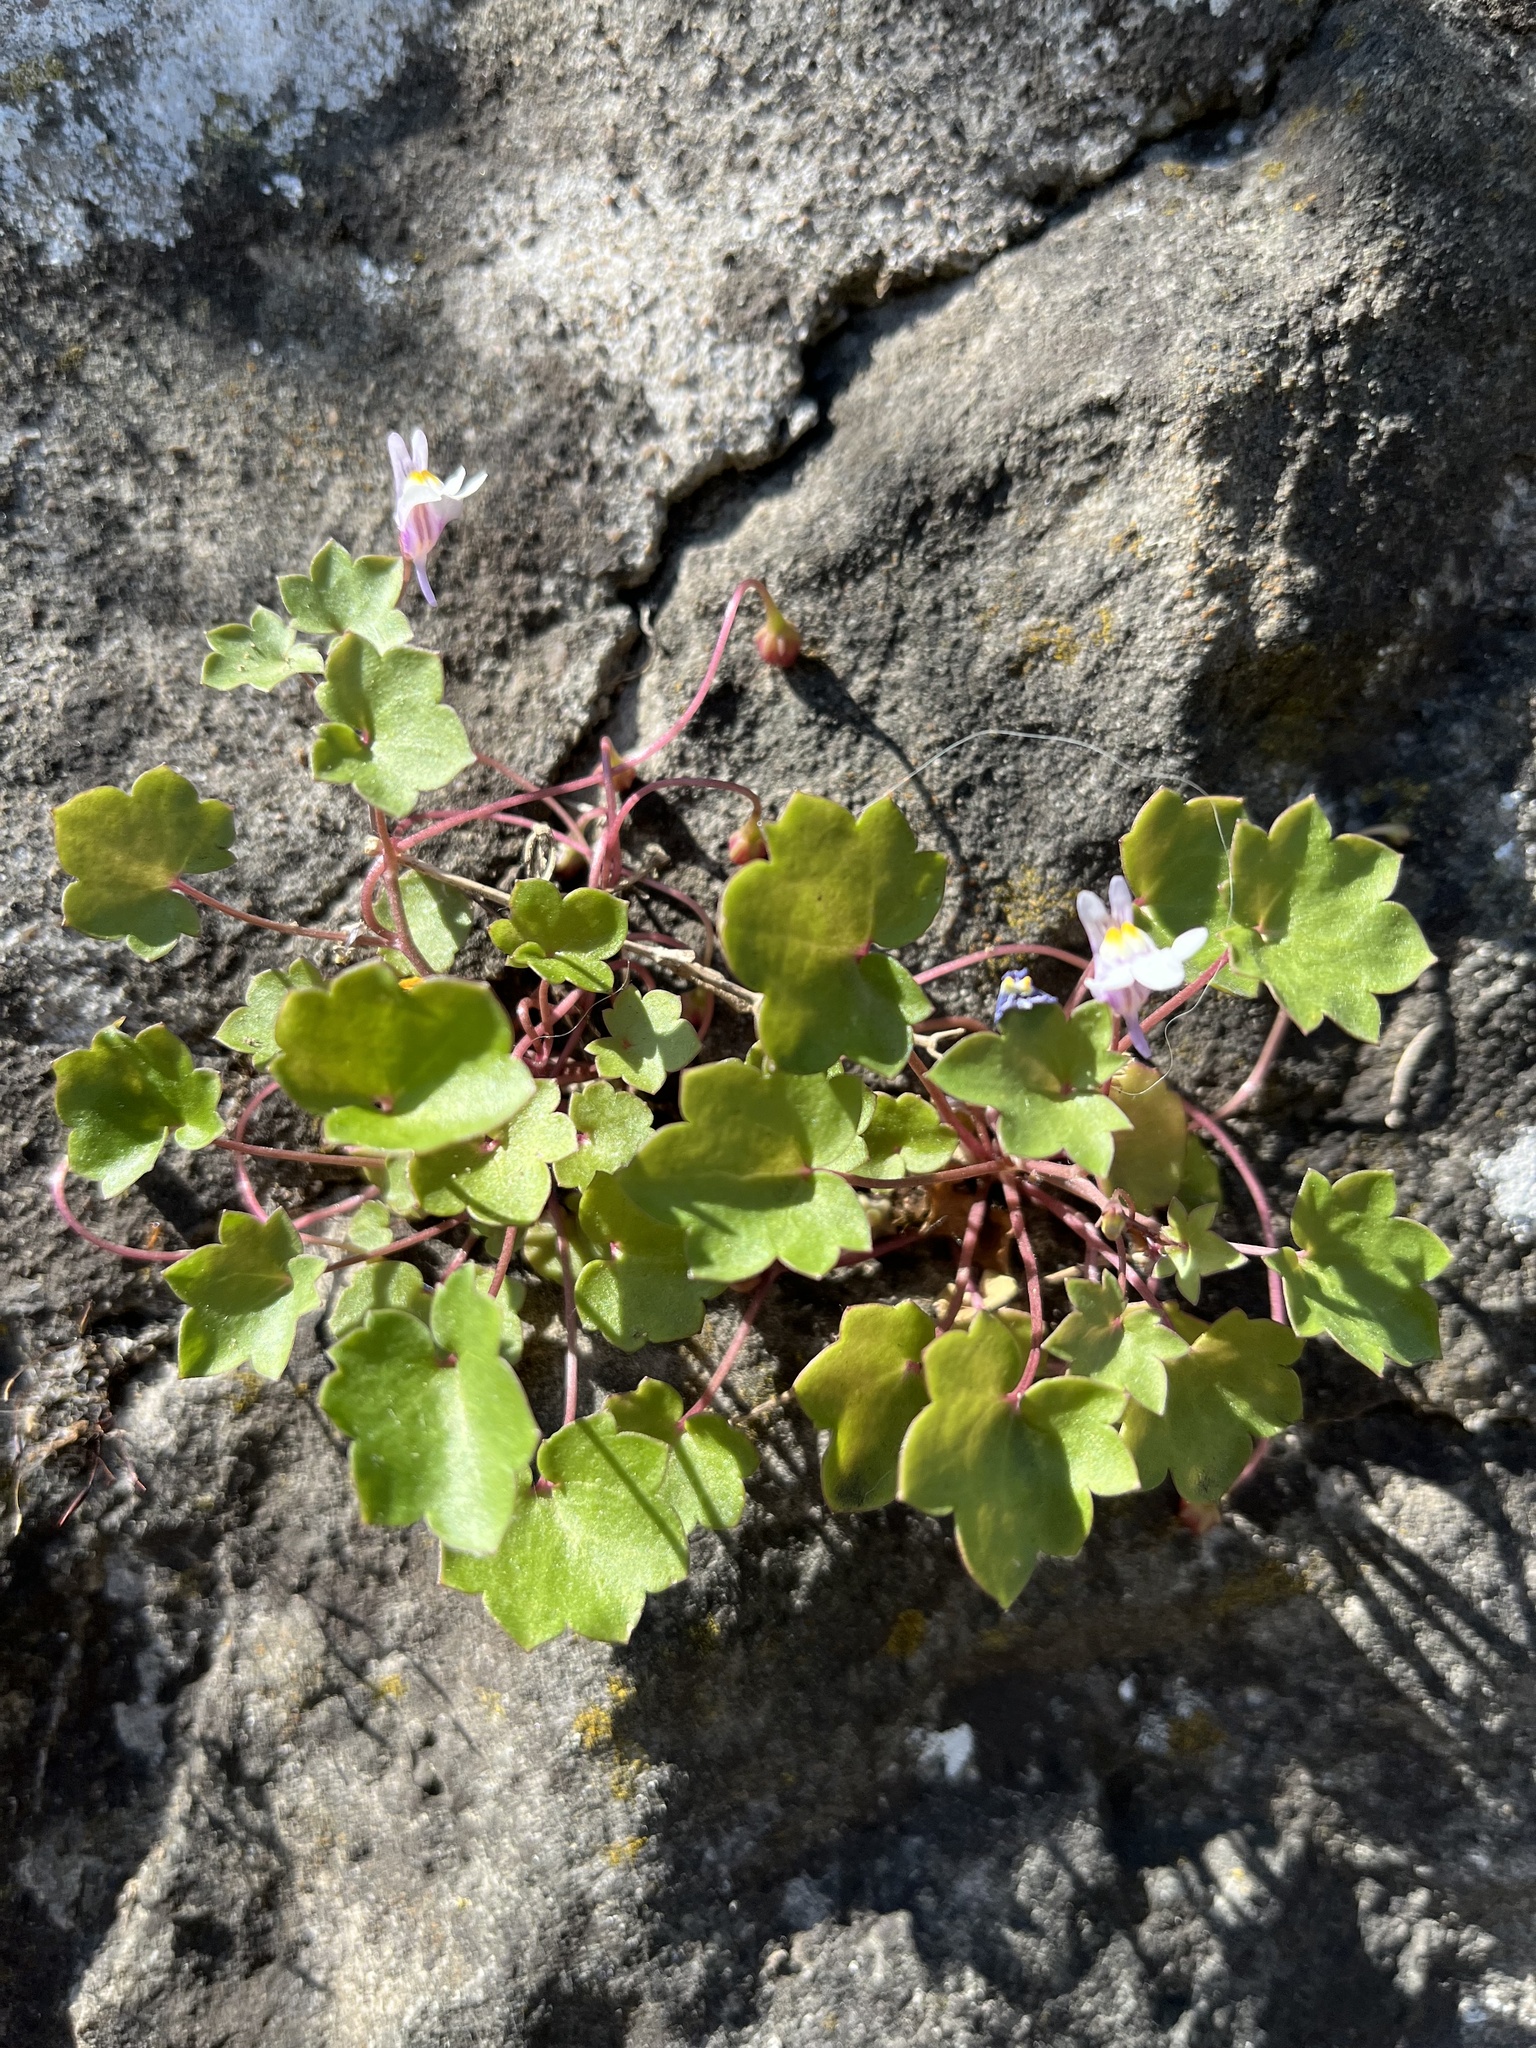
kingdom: Plantae
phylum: Tracheophyta
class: Magnoliopsida
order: Lamiales
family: Plantaginaceae
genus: Cymbalaria
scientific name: Cymbalaria muralis
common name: Ivy-leaved toadflax
